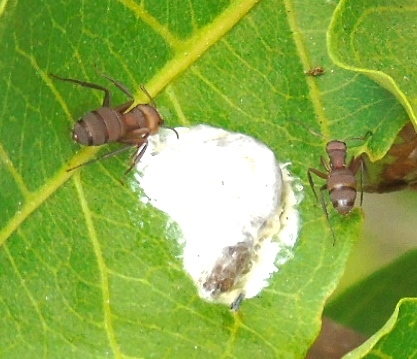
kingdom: Animalia
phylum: Arthropoda
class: Insecta
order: Hymenoptera
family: Formicidae
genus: Camponotus
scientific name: Camponotus rectangularis
